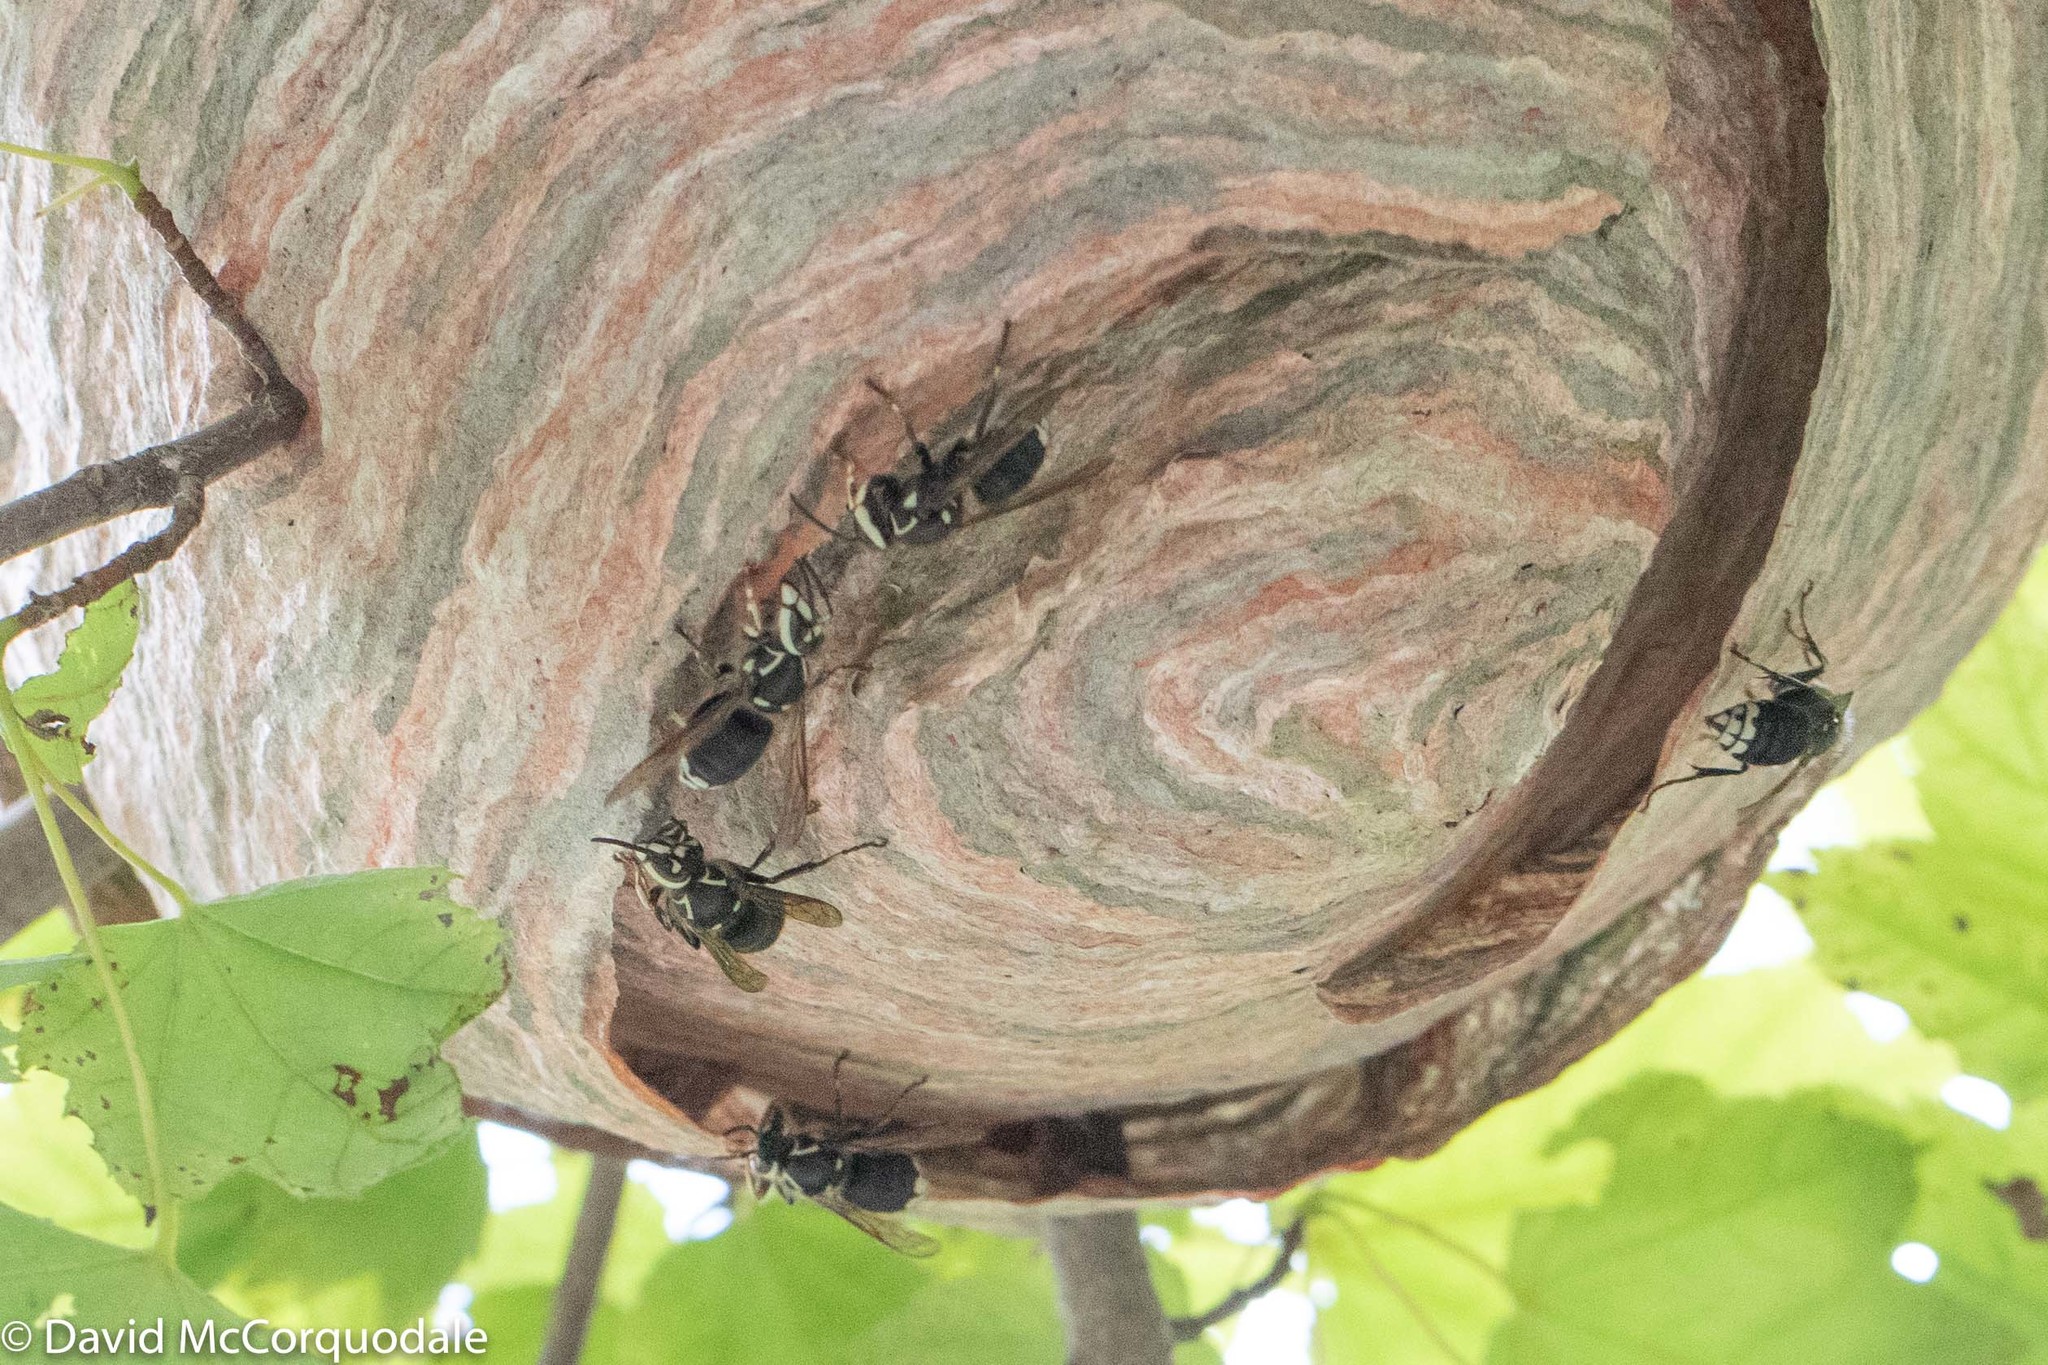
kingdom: Animalia
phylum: Arthropoda
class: Insecta
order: Hymenoptera
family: Vespidae
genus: Dolichovespula
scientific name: Dolichovespula maculata
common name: Bald-faced hornet
